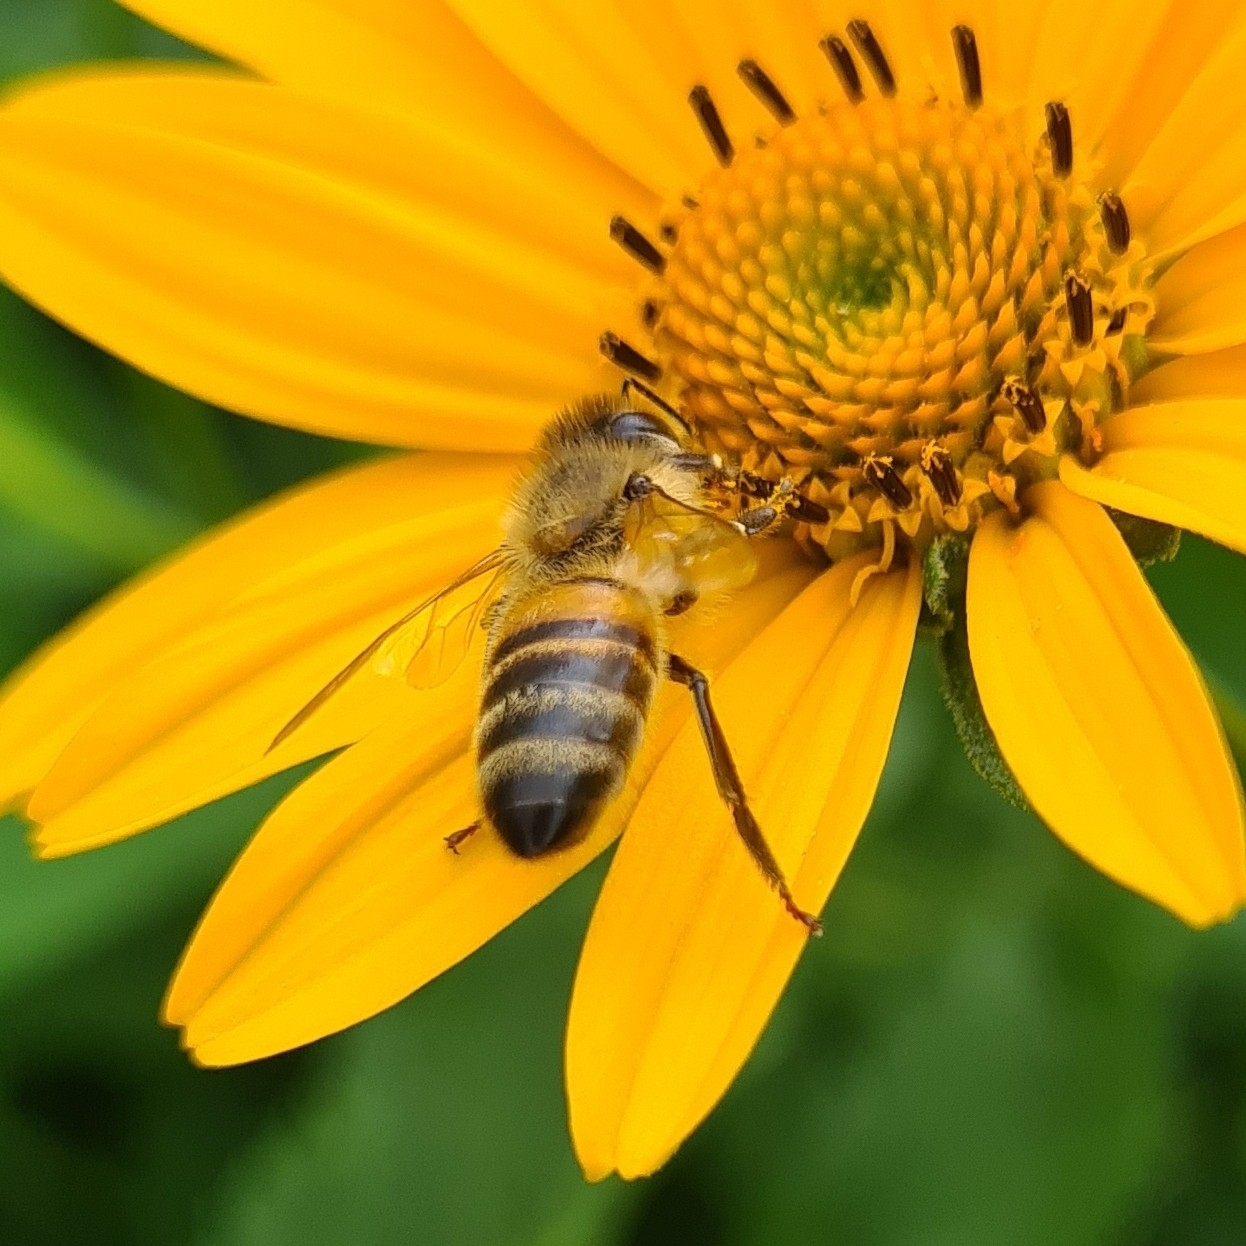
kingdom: Animalia
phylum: Arthropoda
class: Insecta
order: Hymenoptera
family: Apidae
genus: Apis
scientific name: Apis mellifera
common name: Honey bee
